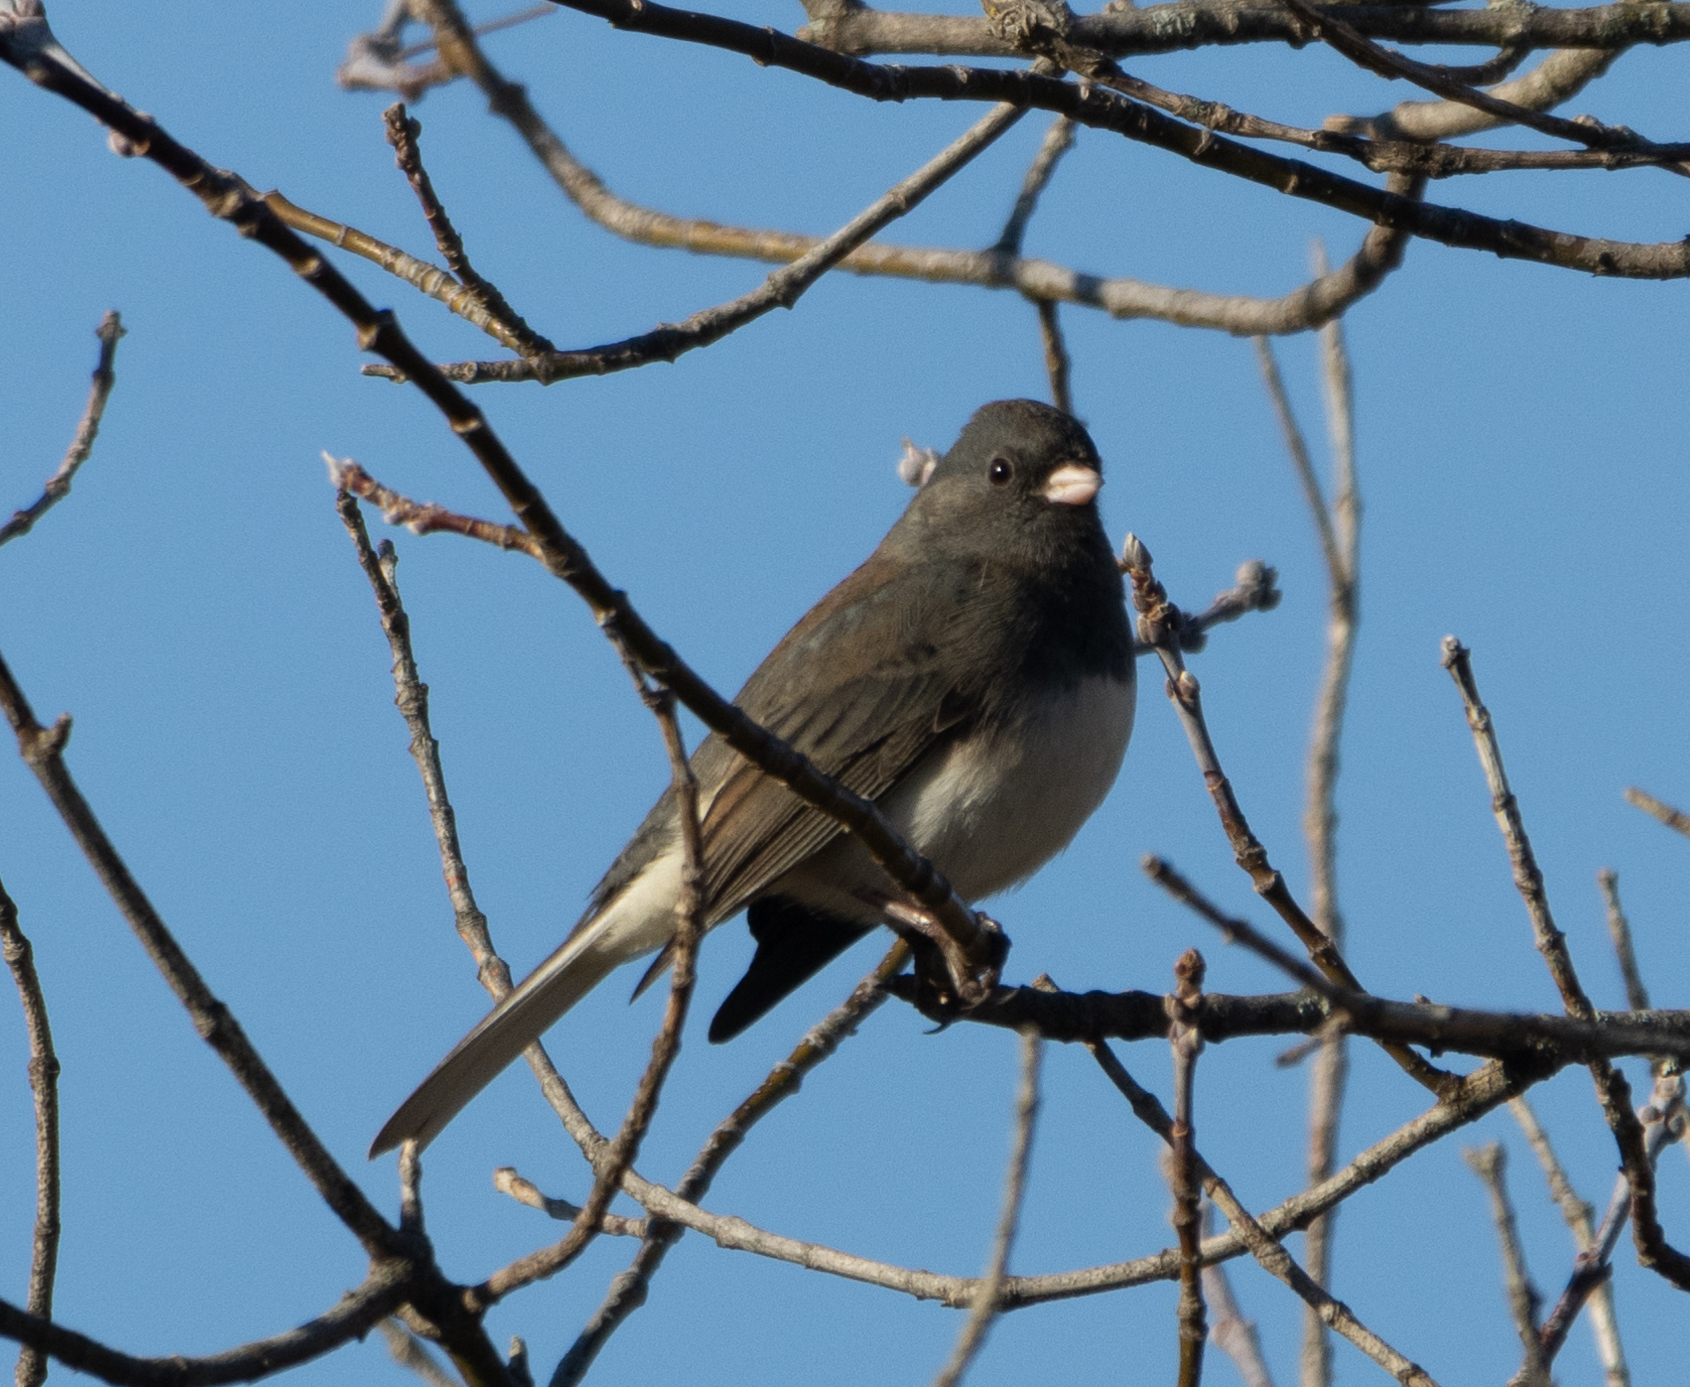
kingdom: Animalia
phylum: Chordata
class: Aves
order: Passeriformes
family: Passerellidae
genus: Junco
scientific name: Junco hyemalis
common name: Dark-eyed junco
